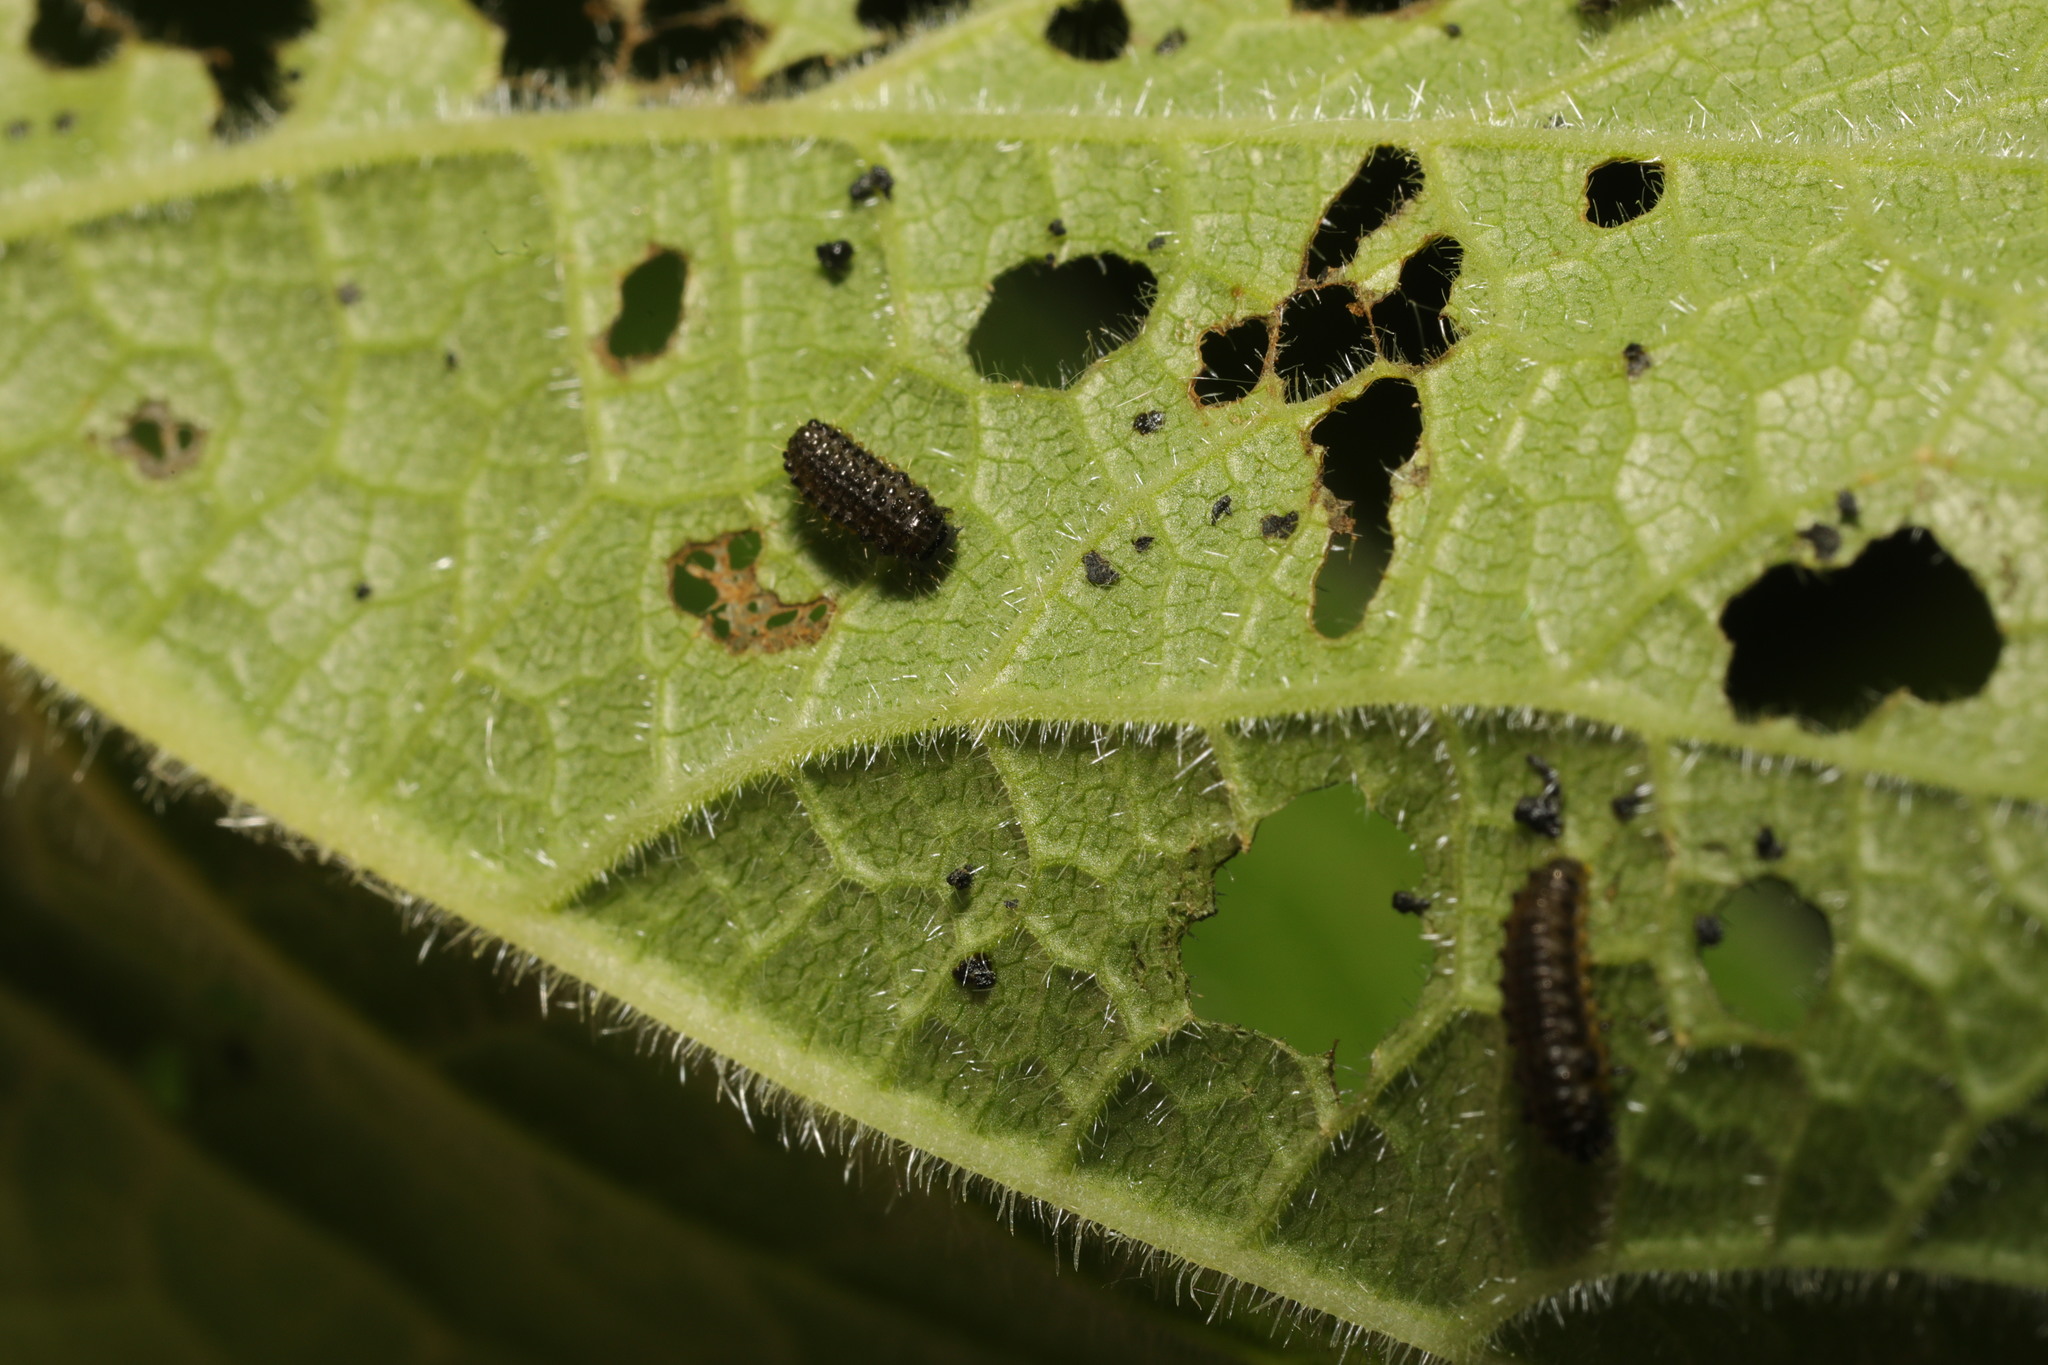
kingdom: Animalia
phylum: Arthropoda
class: Insecta
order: Coleoptera
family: Chrysomelidae
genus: Phaedon
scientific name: Phaedon tumidulus
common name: Celery leaf beetle
